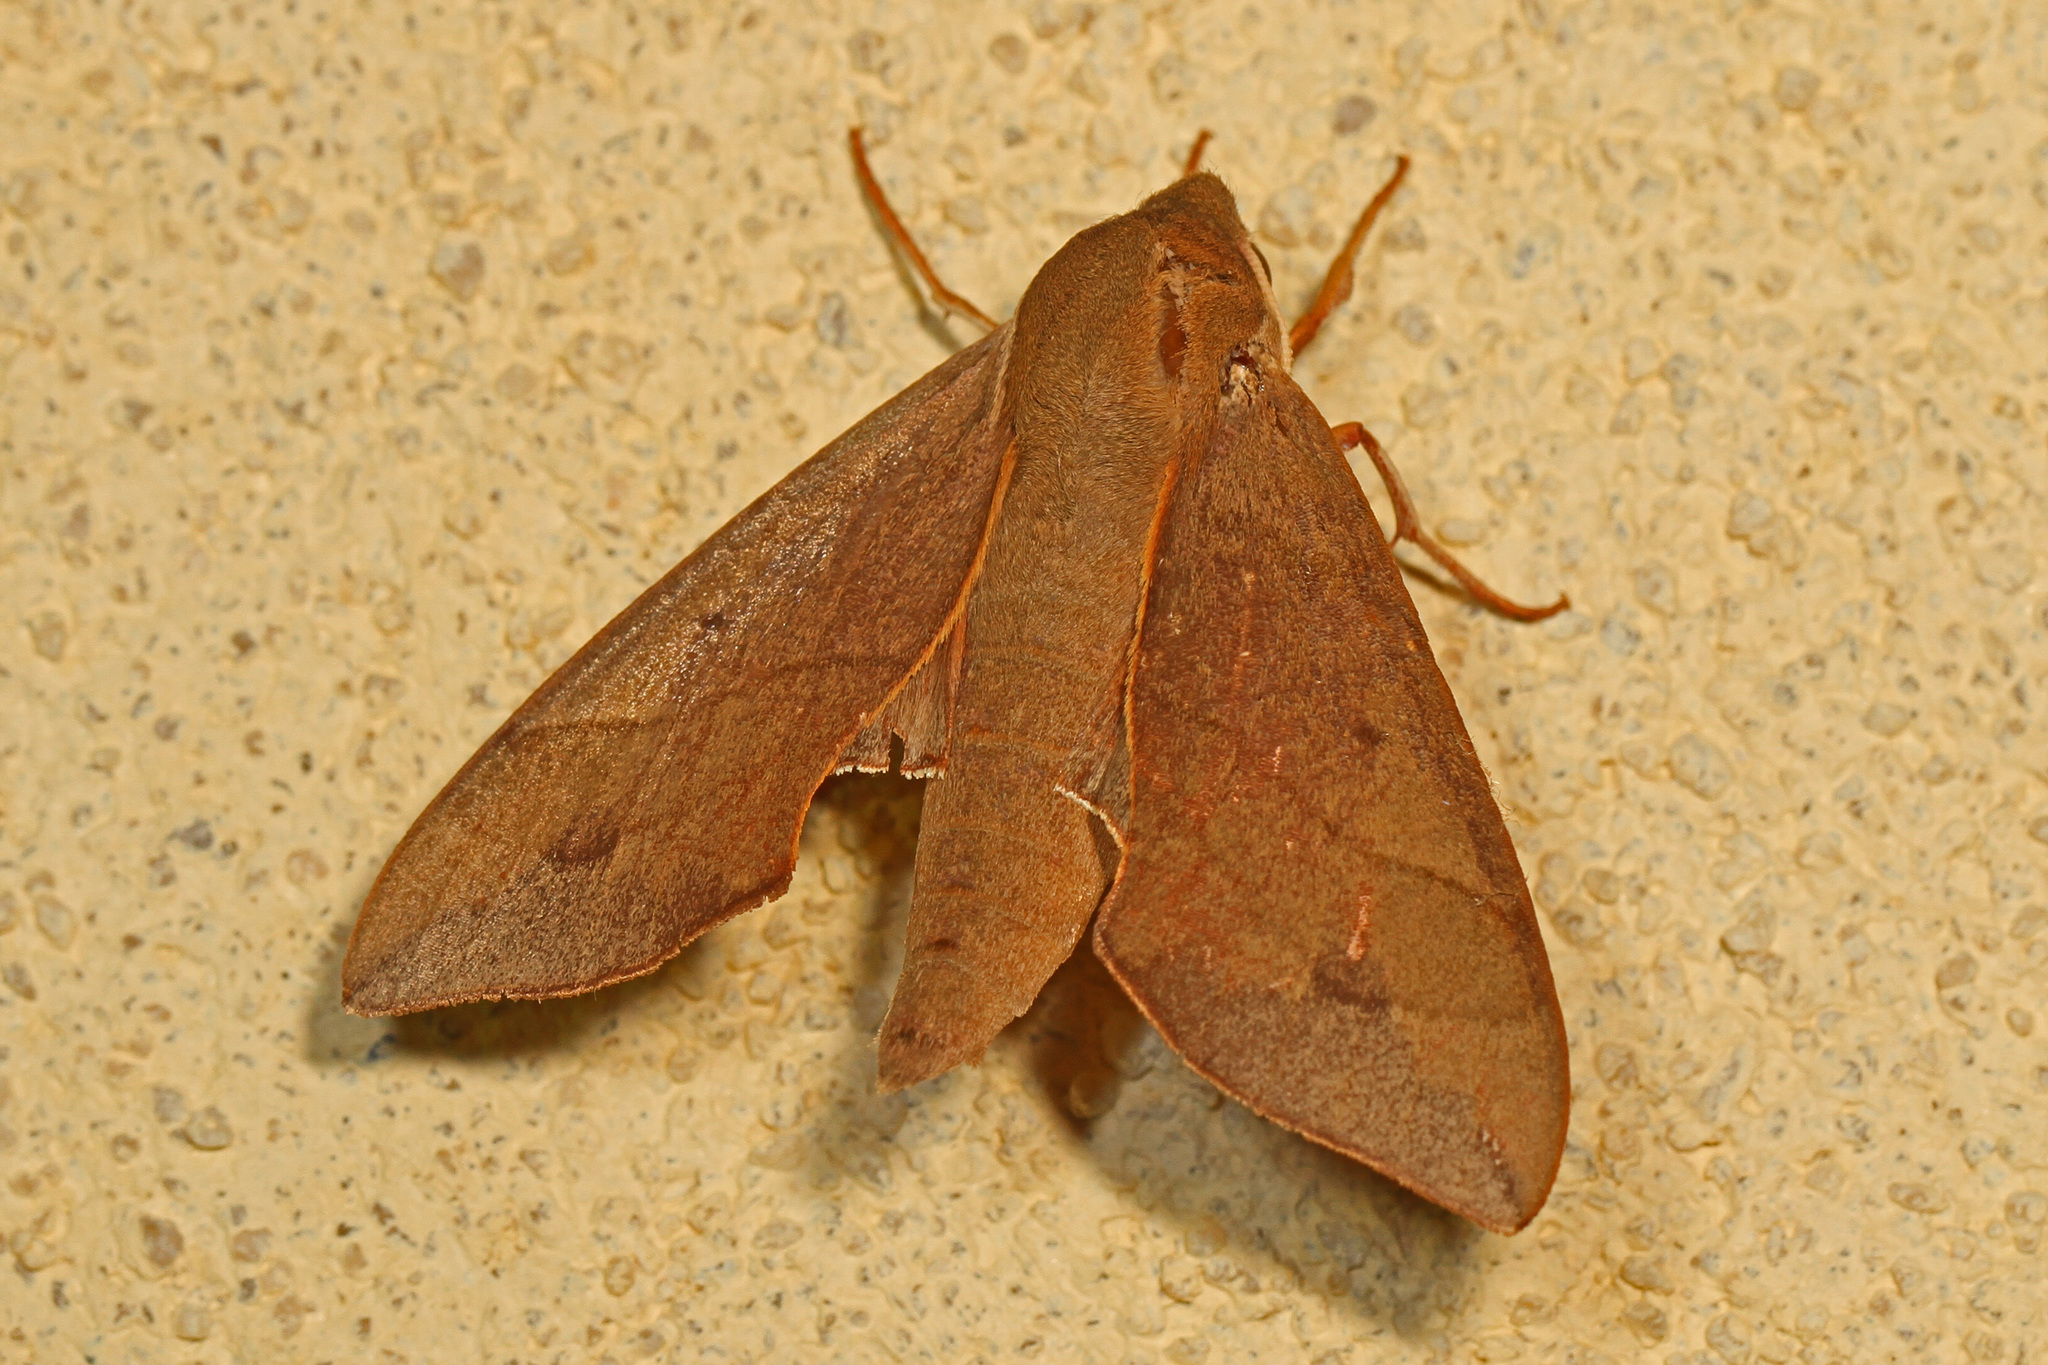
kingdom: Animalia
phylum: Arthropoda
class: Insecta
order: Lepidoptera
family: Sphingidae
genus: Darapsa
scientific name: Darapsa myron
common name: Hog sphinx
